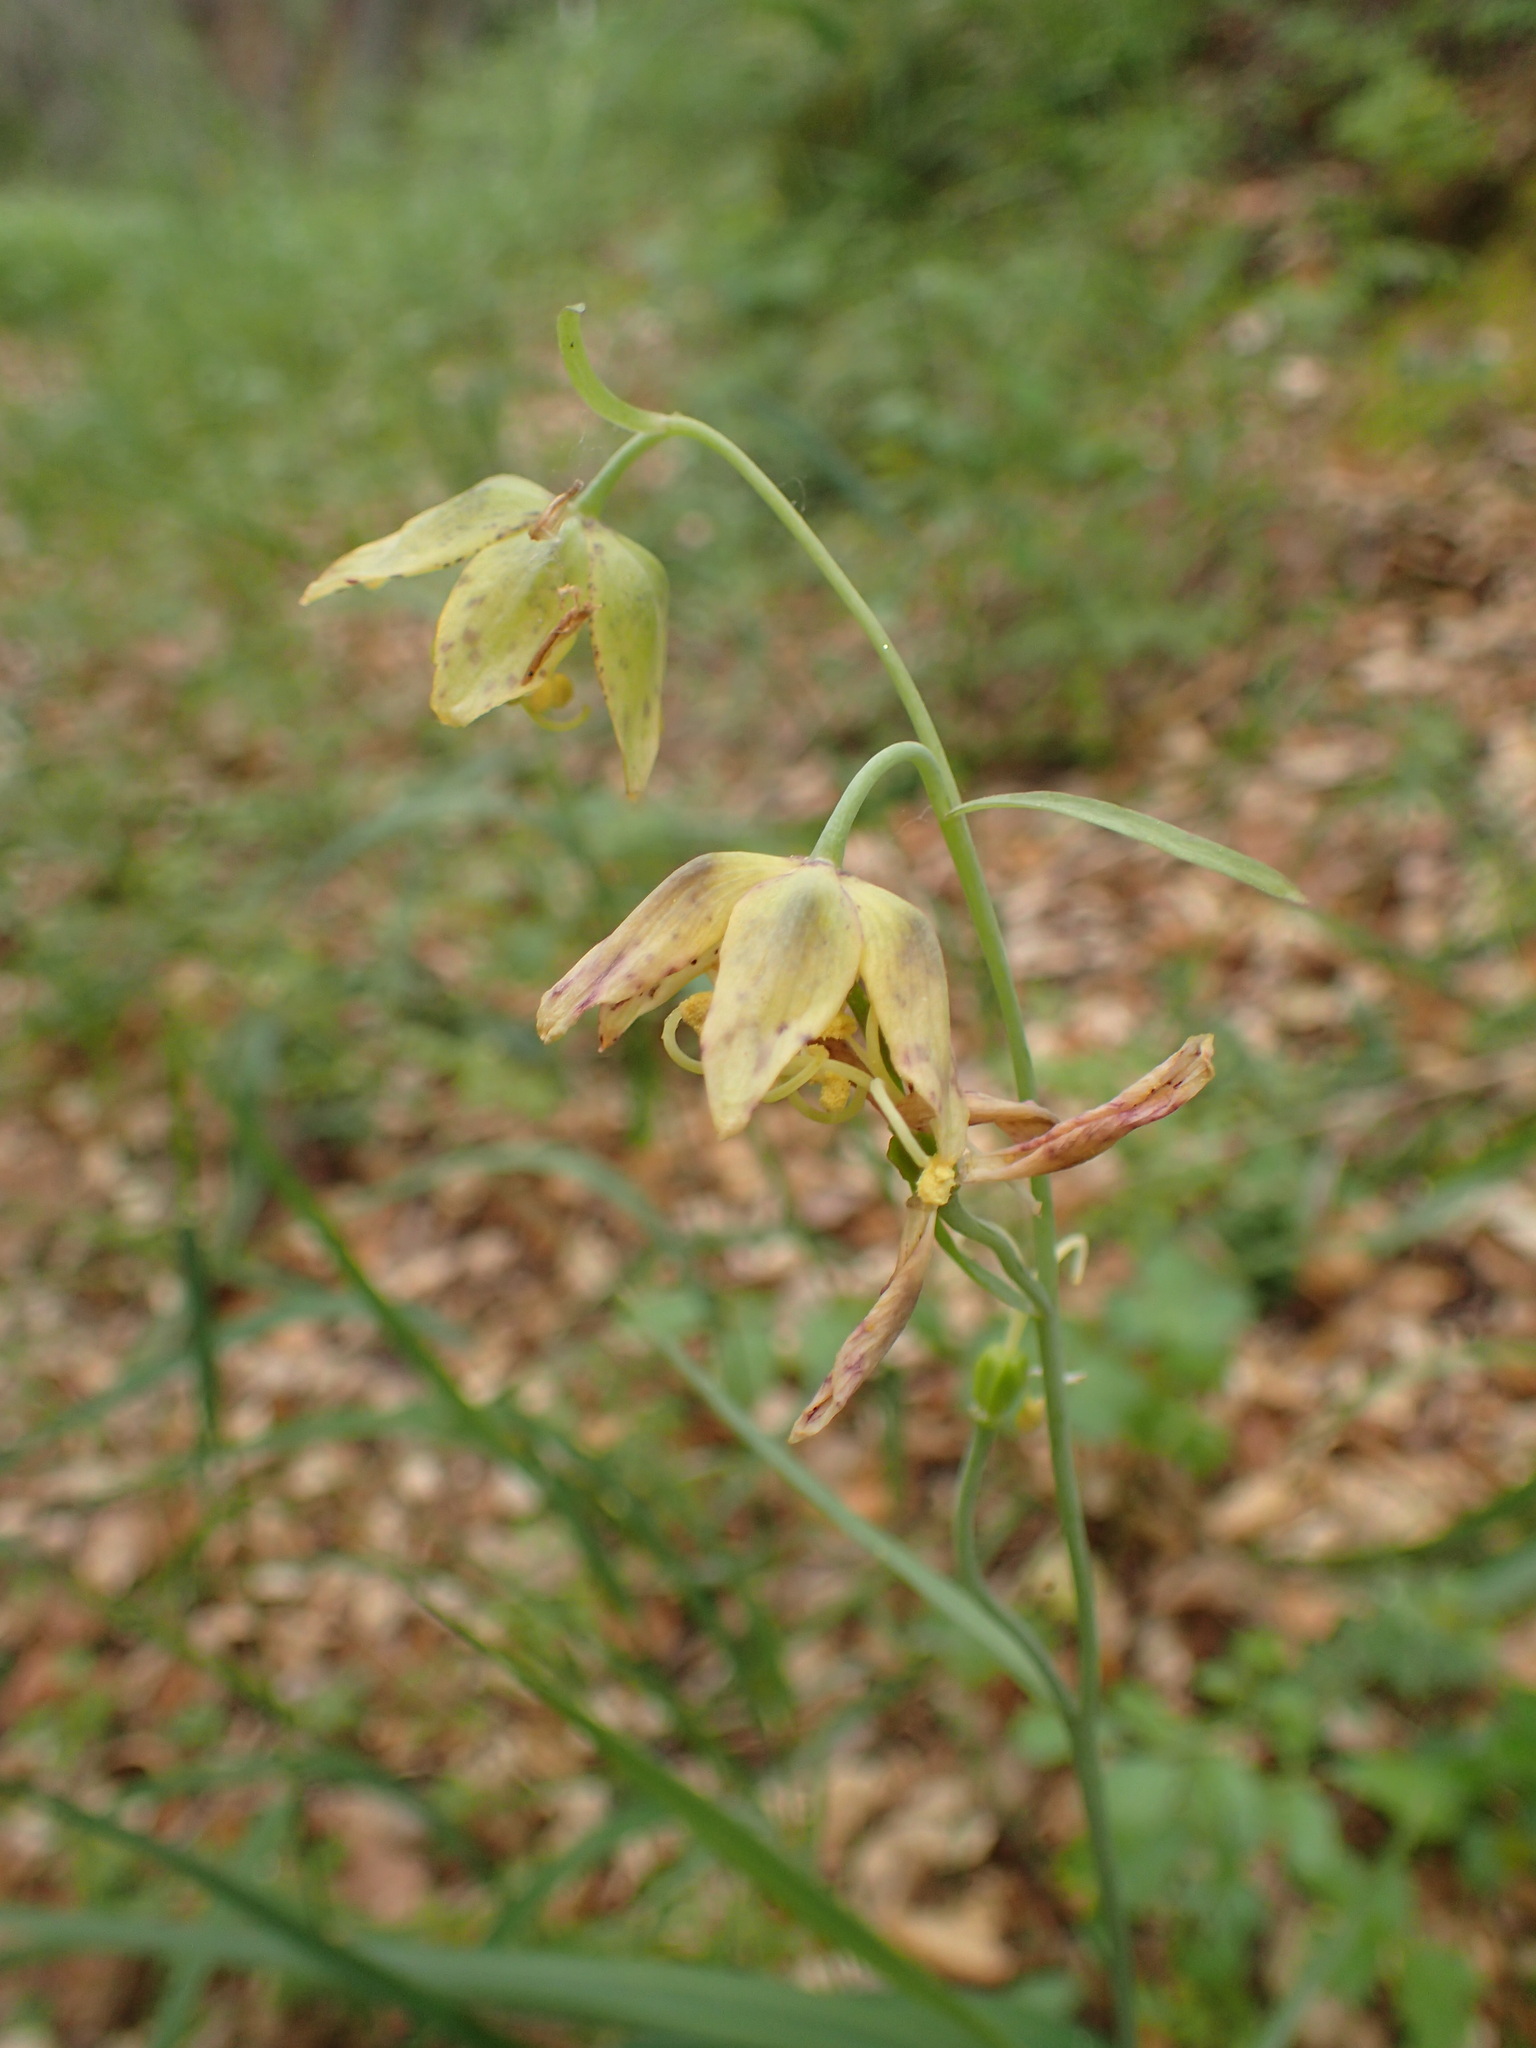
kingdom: Plantae
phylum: Tracheophyta
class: Liliopsida
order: Liliales
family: Liliaceae
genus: Fritillaria
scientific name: Fritillaria ojaiensis
